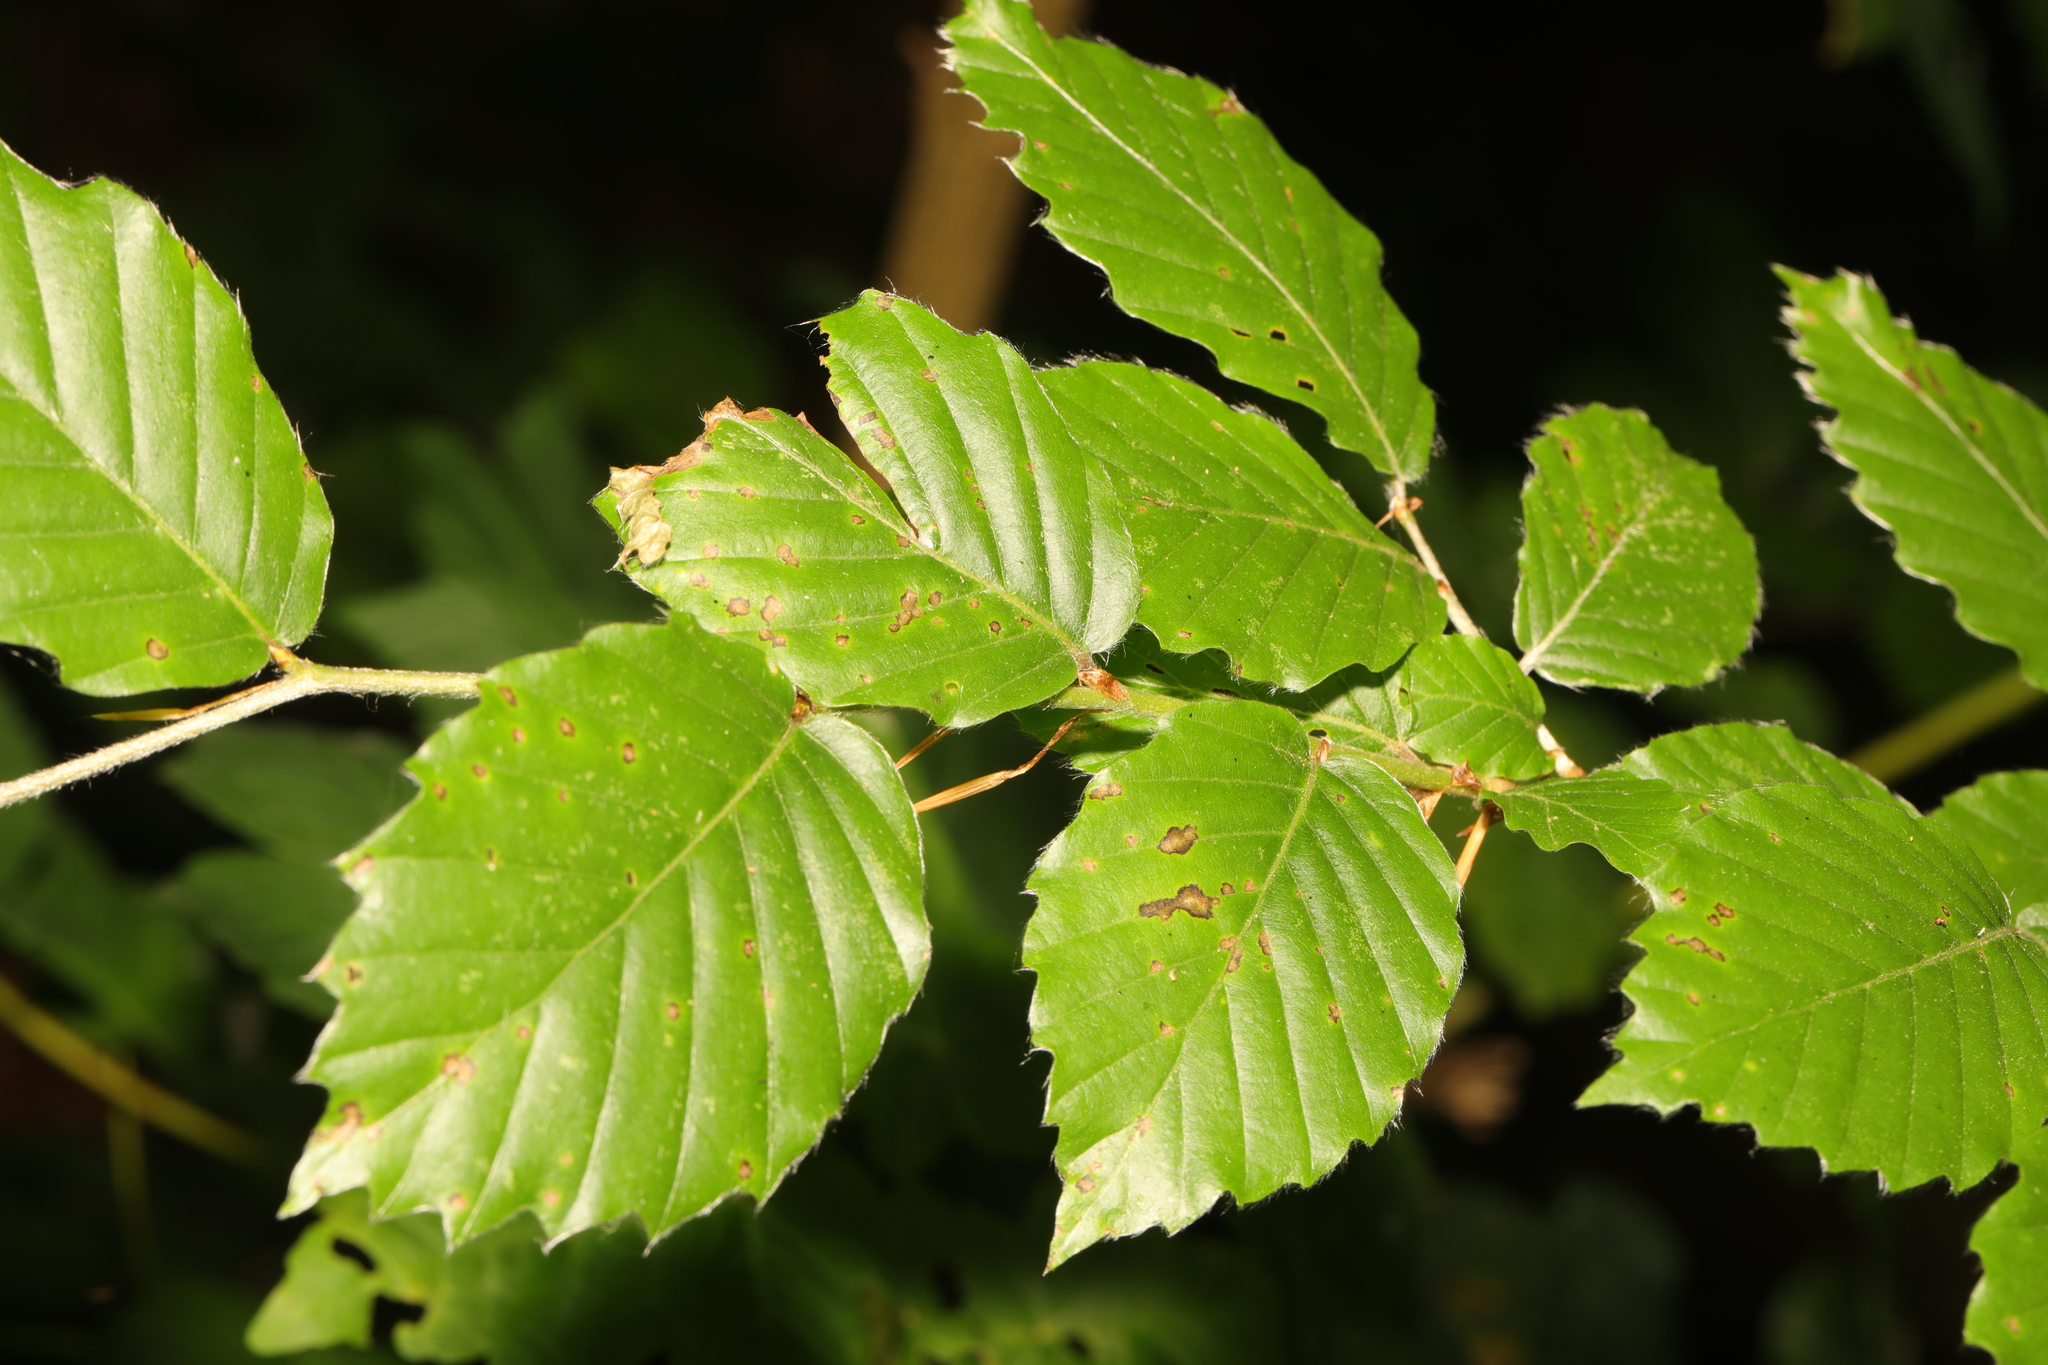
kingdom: Plantae
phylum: Tracheophyta
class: Magnoliopsida
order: Fagales
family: Fagaceae
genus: Fagus
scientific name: Fagus sylvatica
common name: Beech
